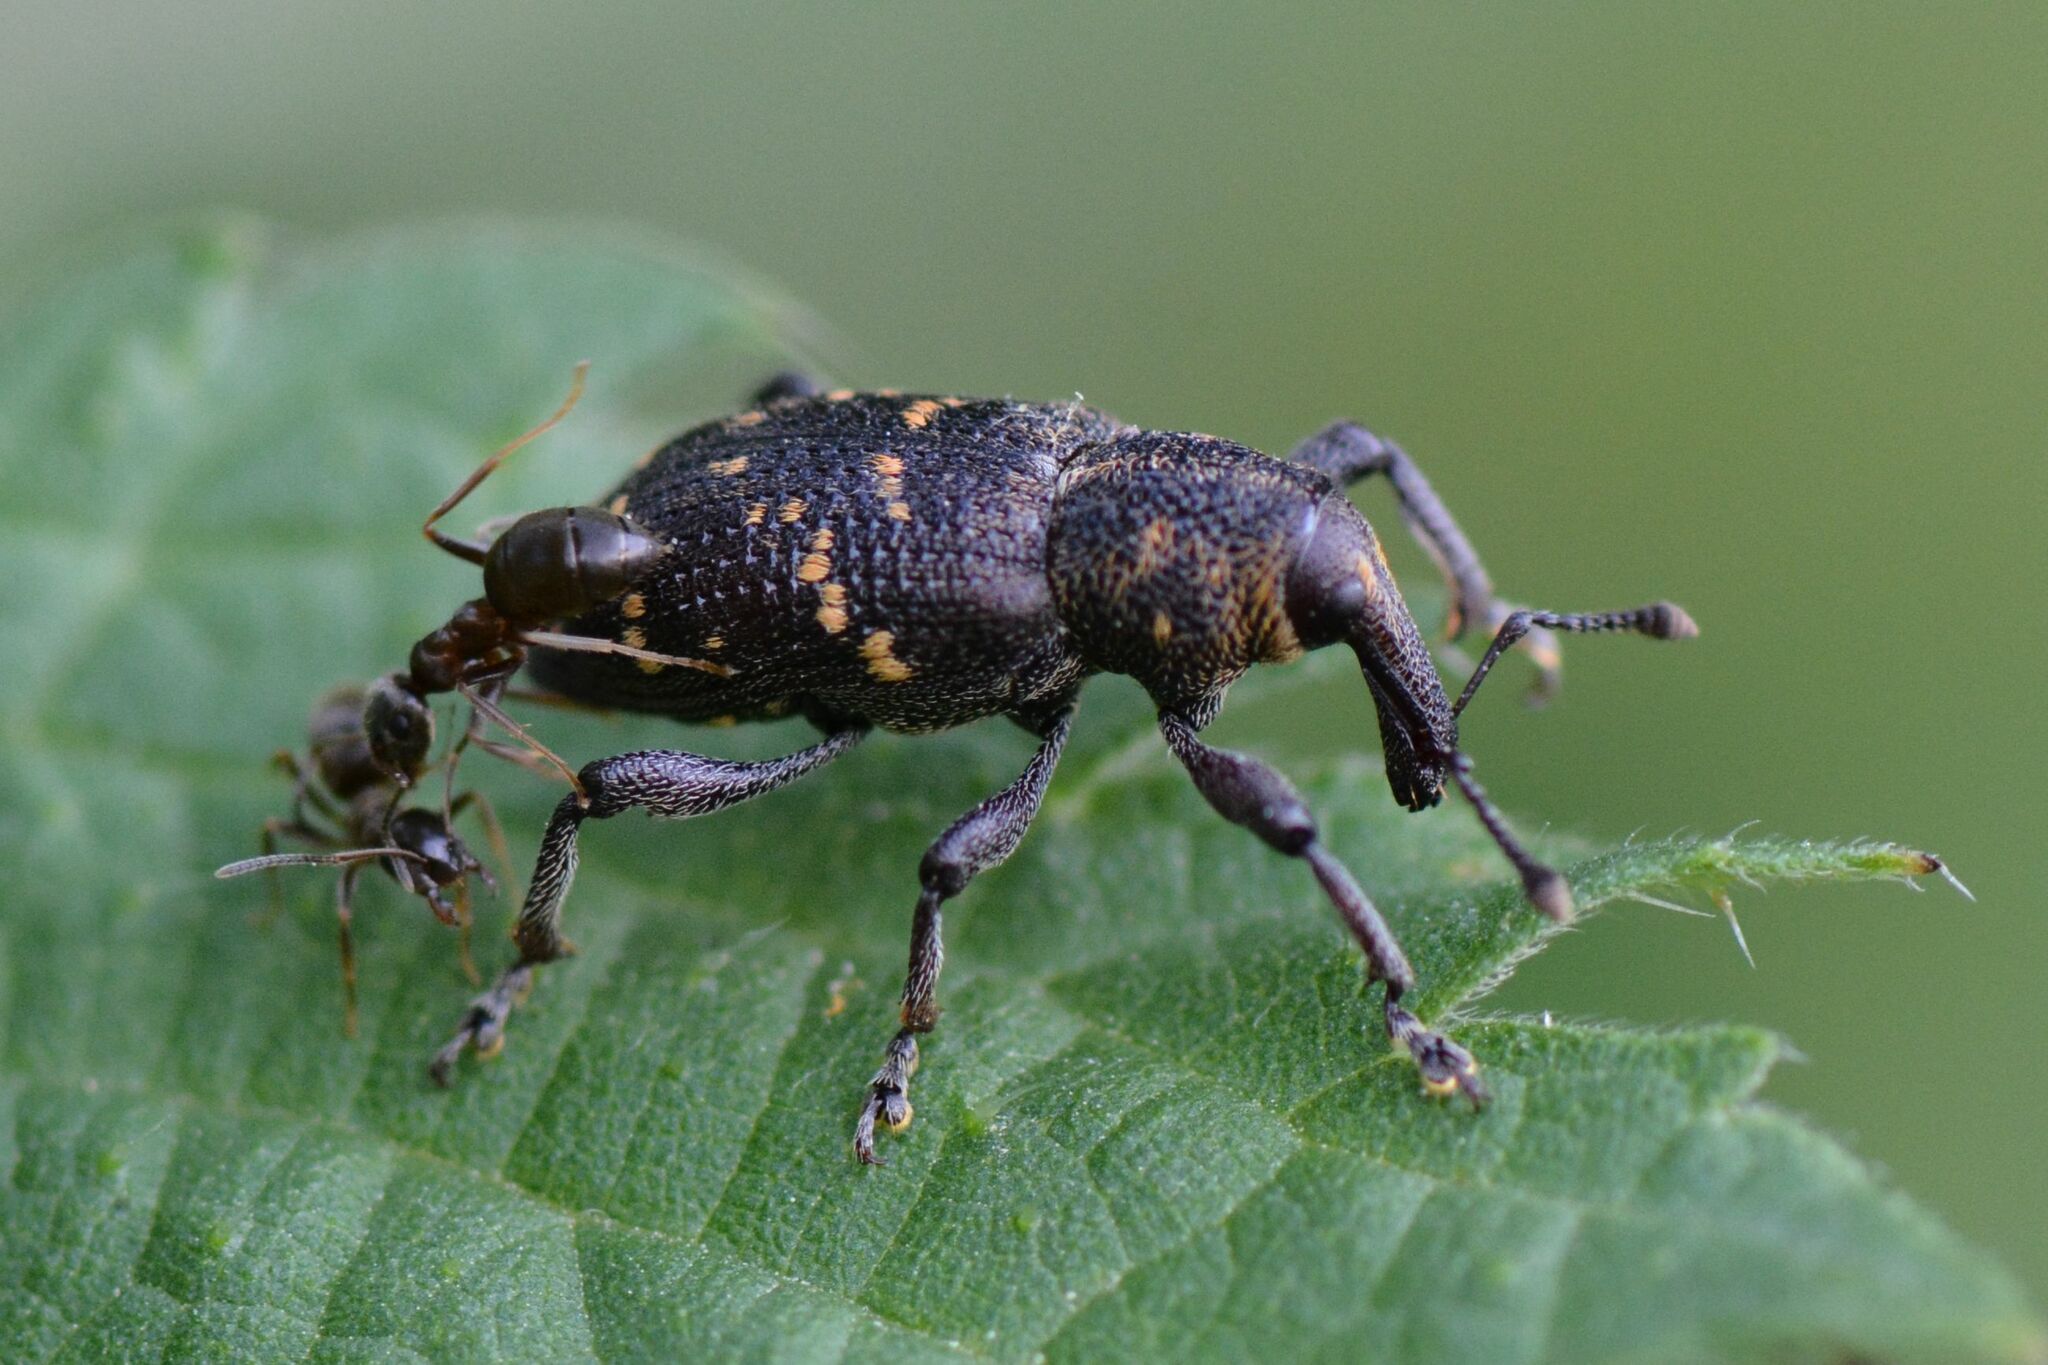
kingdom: Animalia
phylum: Arthropoda
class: Insecta
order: Coleoptera
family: Curculionidae
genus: Hylobius
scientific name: Hylobius abietis
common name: Large pine weevil
